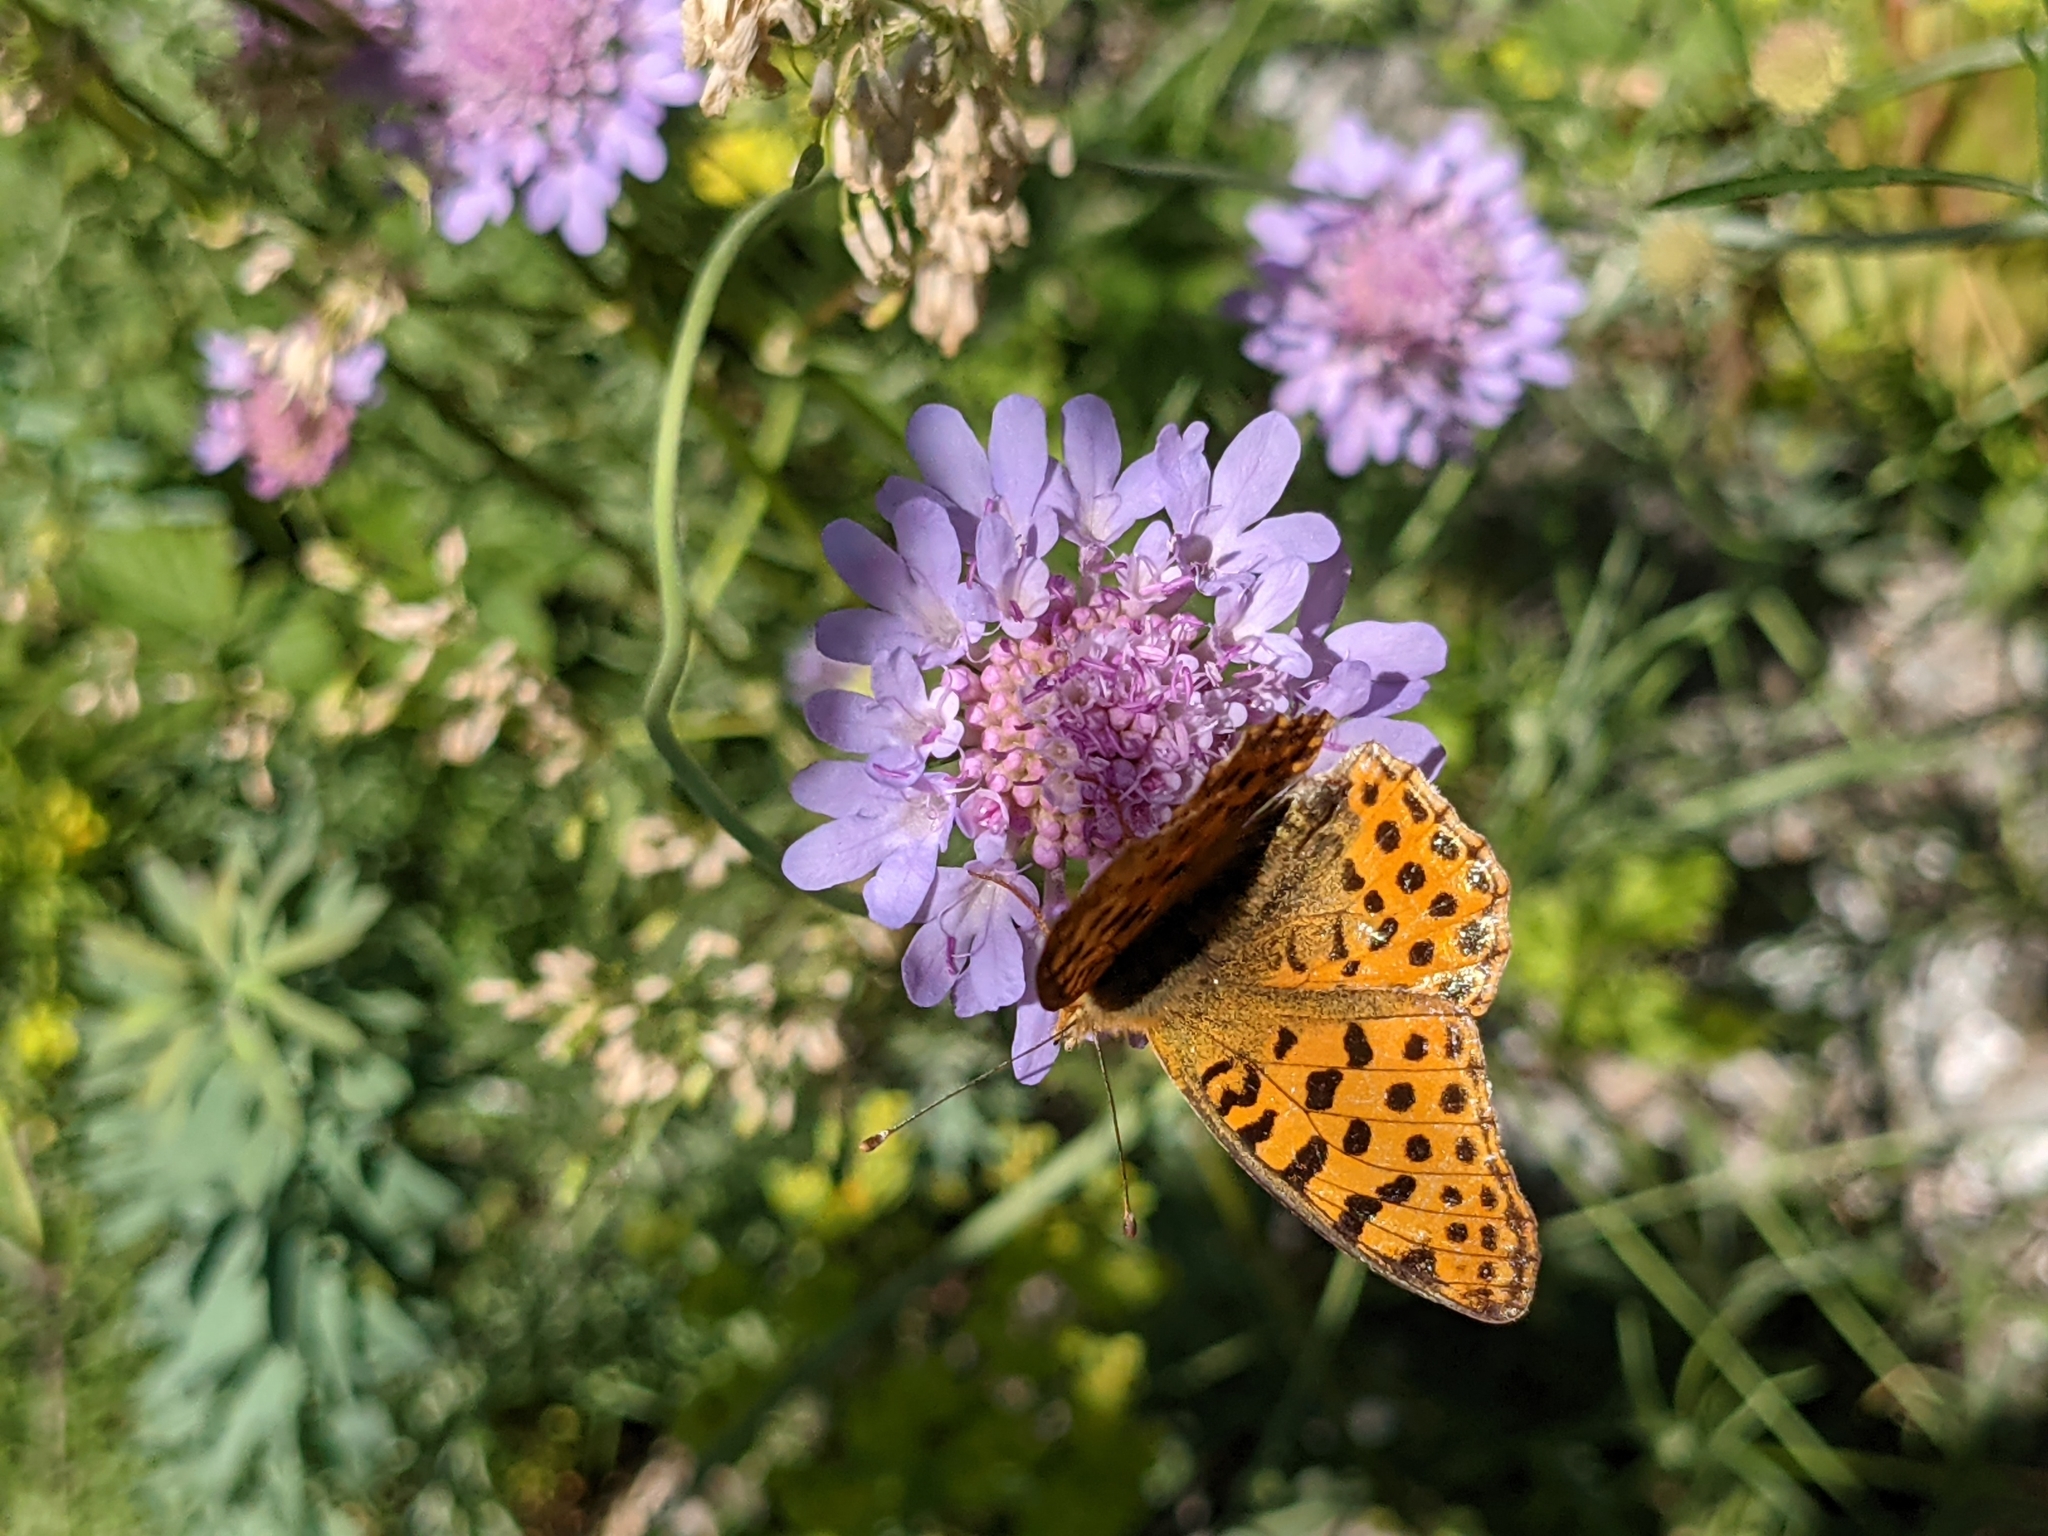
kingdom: Animalia
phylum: Arthropoda
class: Insecta
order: Lepidoptera
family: Nymphalidae
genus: Issoria
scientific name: Issoria lathonia
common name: Queen of spain fritillary
